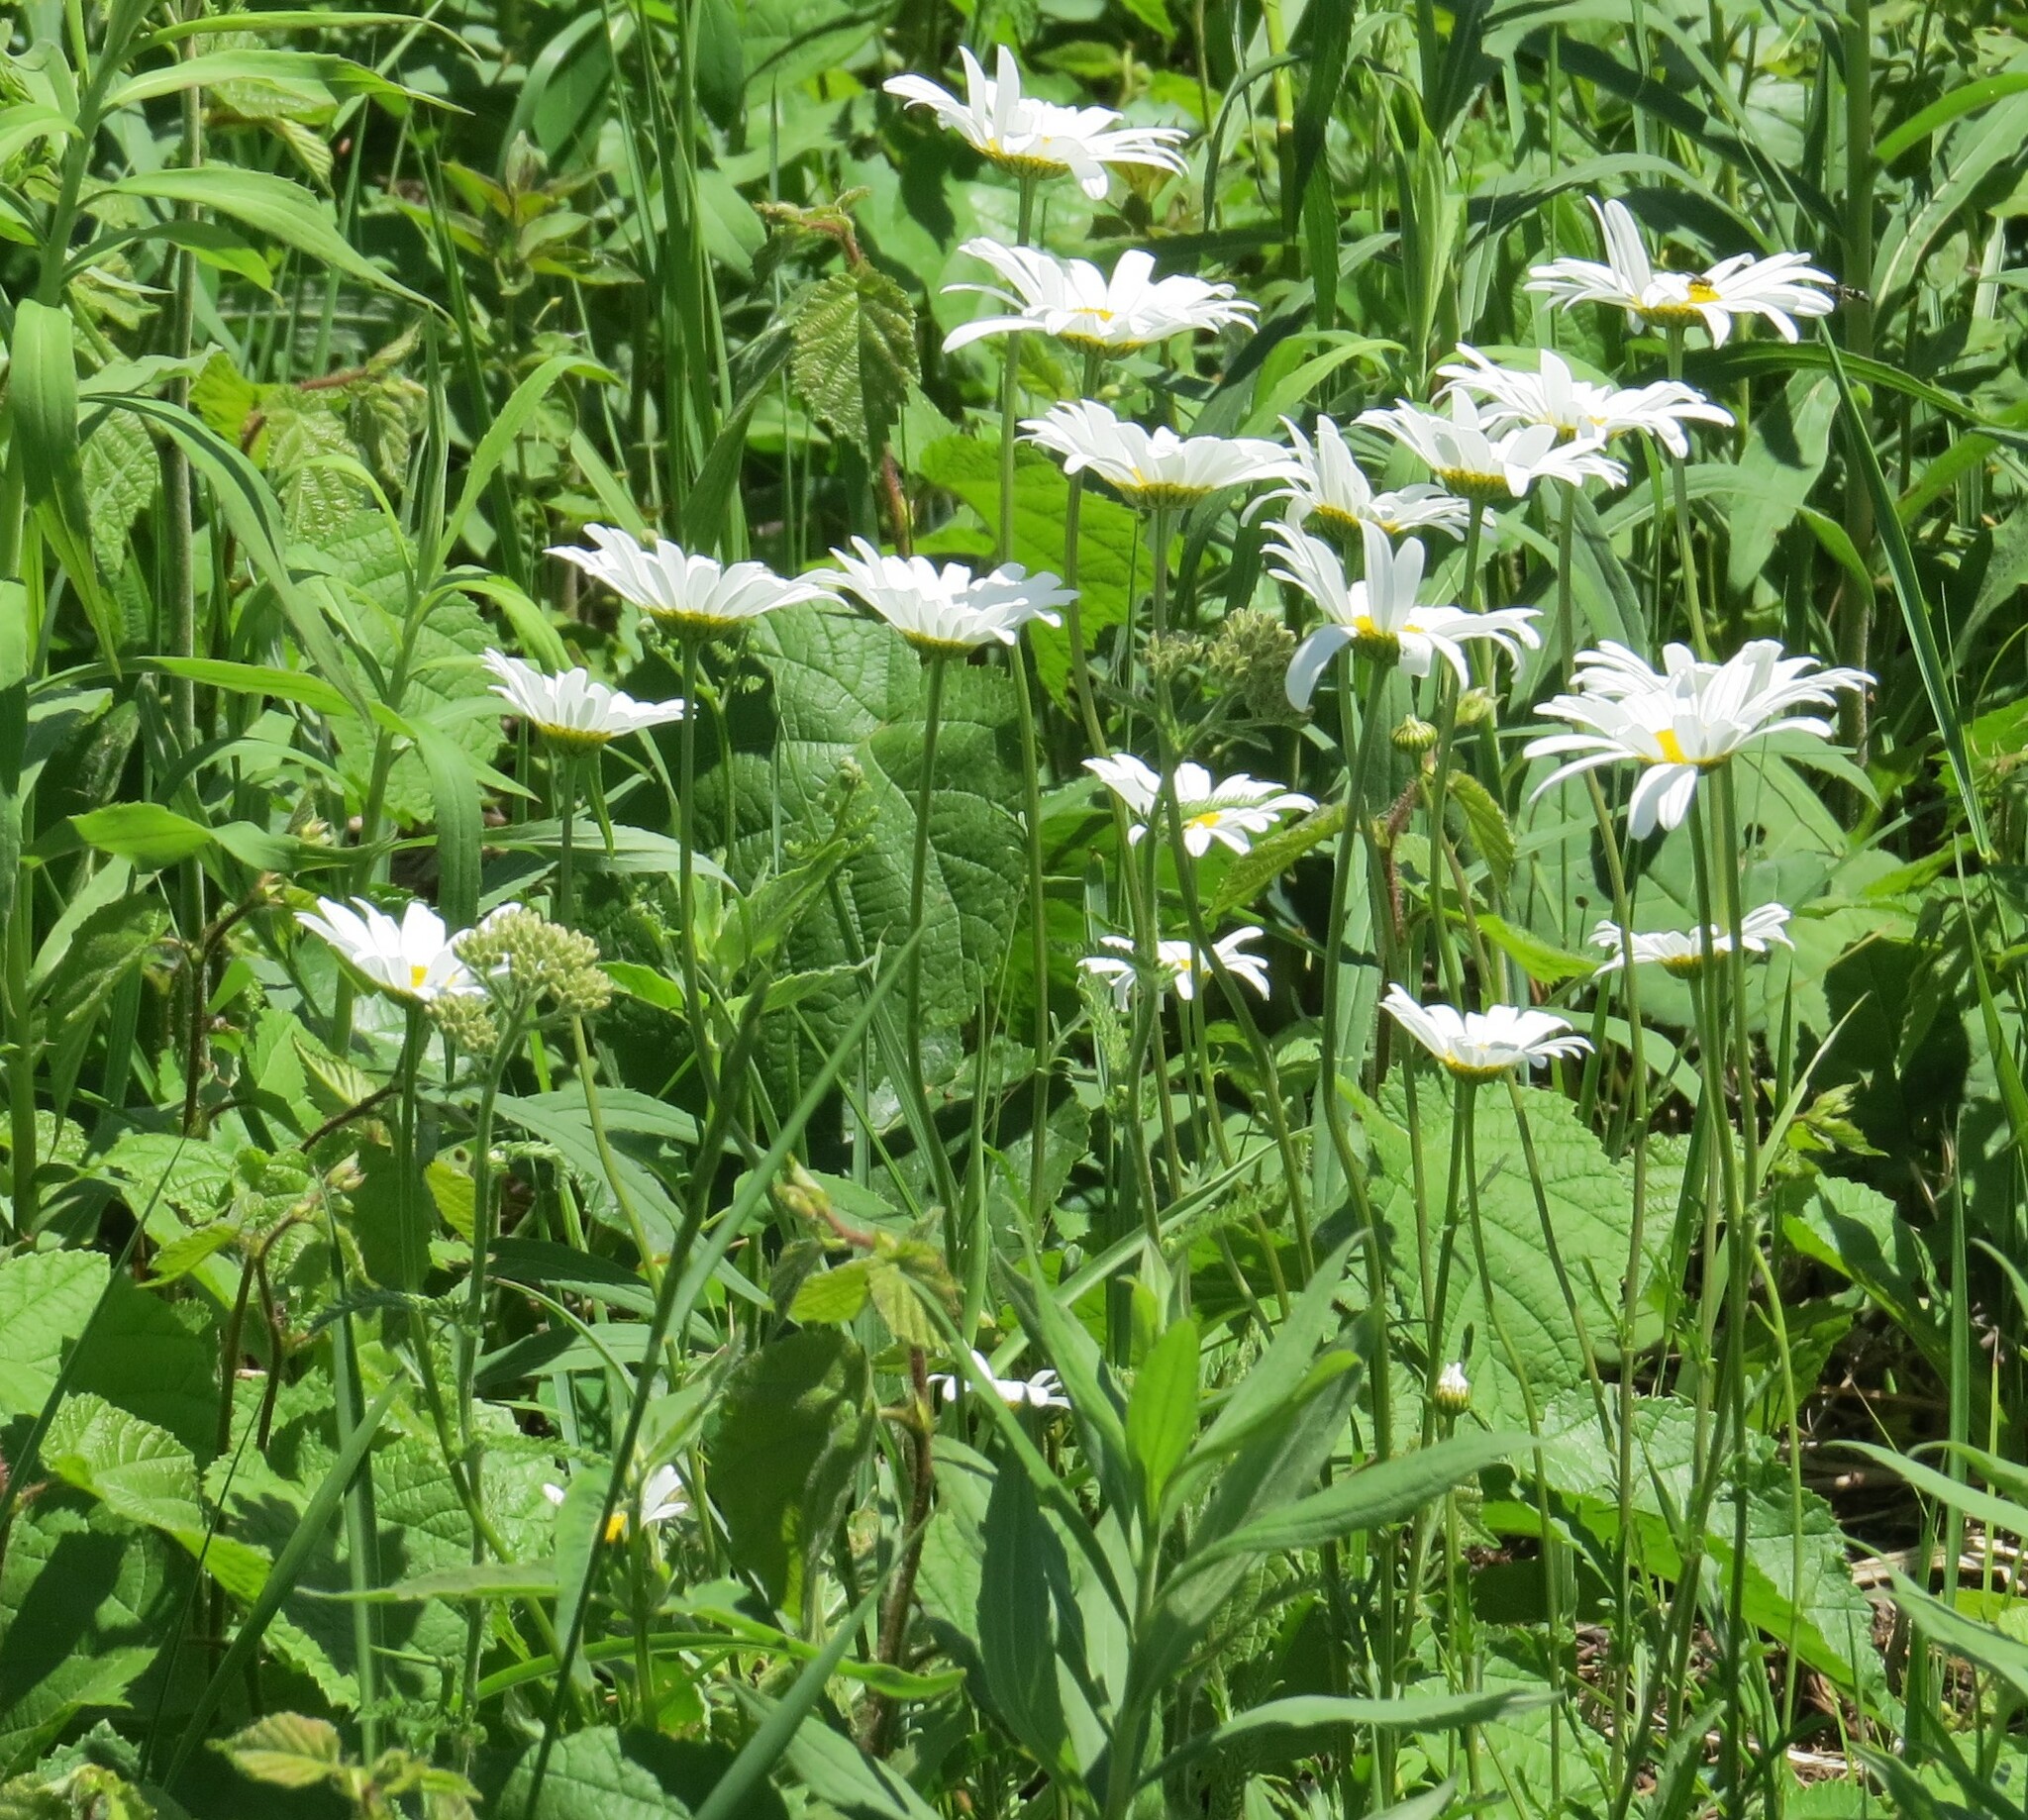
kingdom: Plantae
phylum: Tracheophyta
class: Magnoliopsida
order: Asterales
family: Asteraceae
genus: Leucanthemum
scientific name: Leucanthemum vulgare
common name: Oxeye daisy
